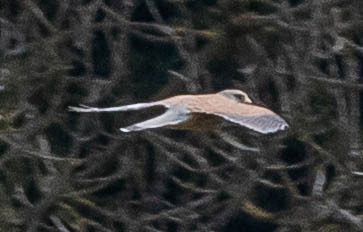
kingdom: Animalia
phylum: Chordata
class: Aves
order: Falconiformes
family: Falconidae
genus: Falco
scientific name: Falco tinnunculus
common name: Common kestrel
